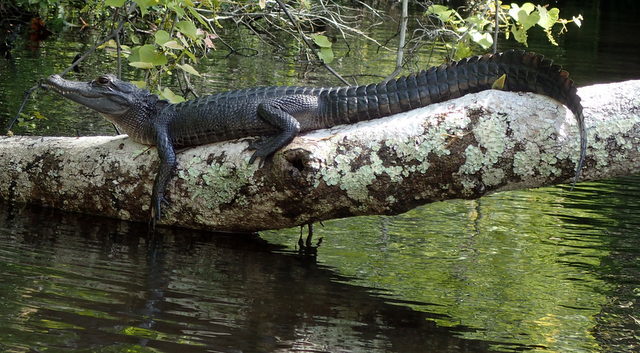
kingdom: Animalia
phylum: Chordata
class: Crocodylia
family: Alligatoridae
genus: Alligator
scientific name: Alligator mississippiensis
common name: American alligator
